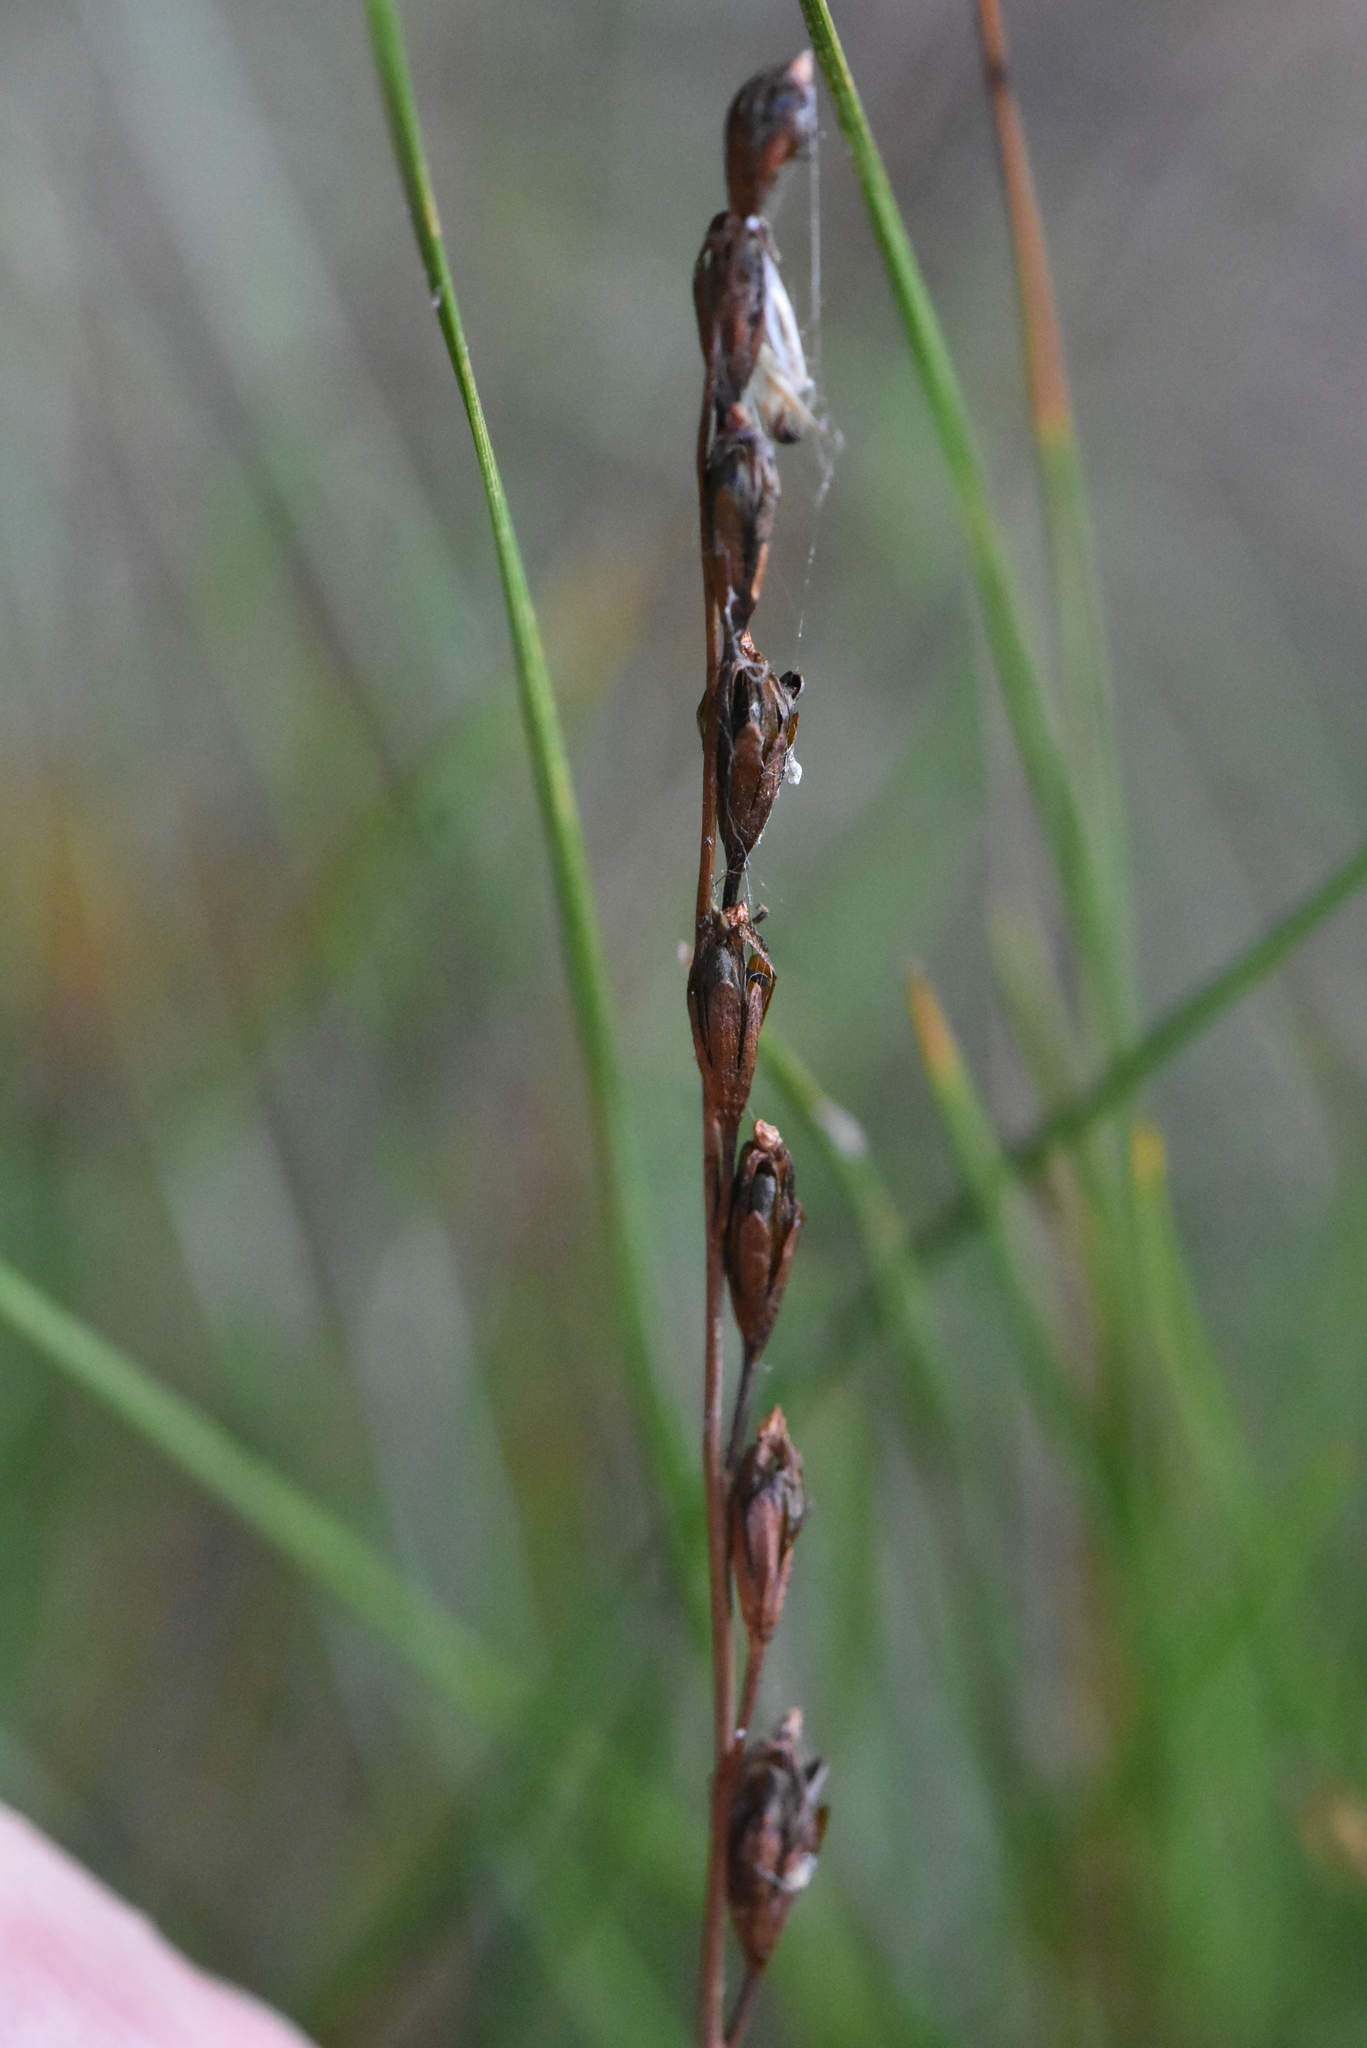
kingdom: Plantae
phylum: Tracheophyta
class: Magnoliopsida
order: Caryophyllales
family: Droseraceae
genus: Drosera
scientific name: Drosera rotundifolia
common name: Round-leaved sundew
